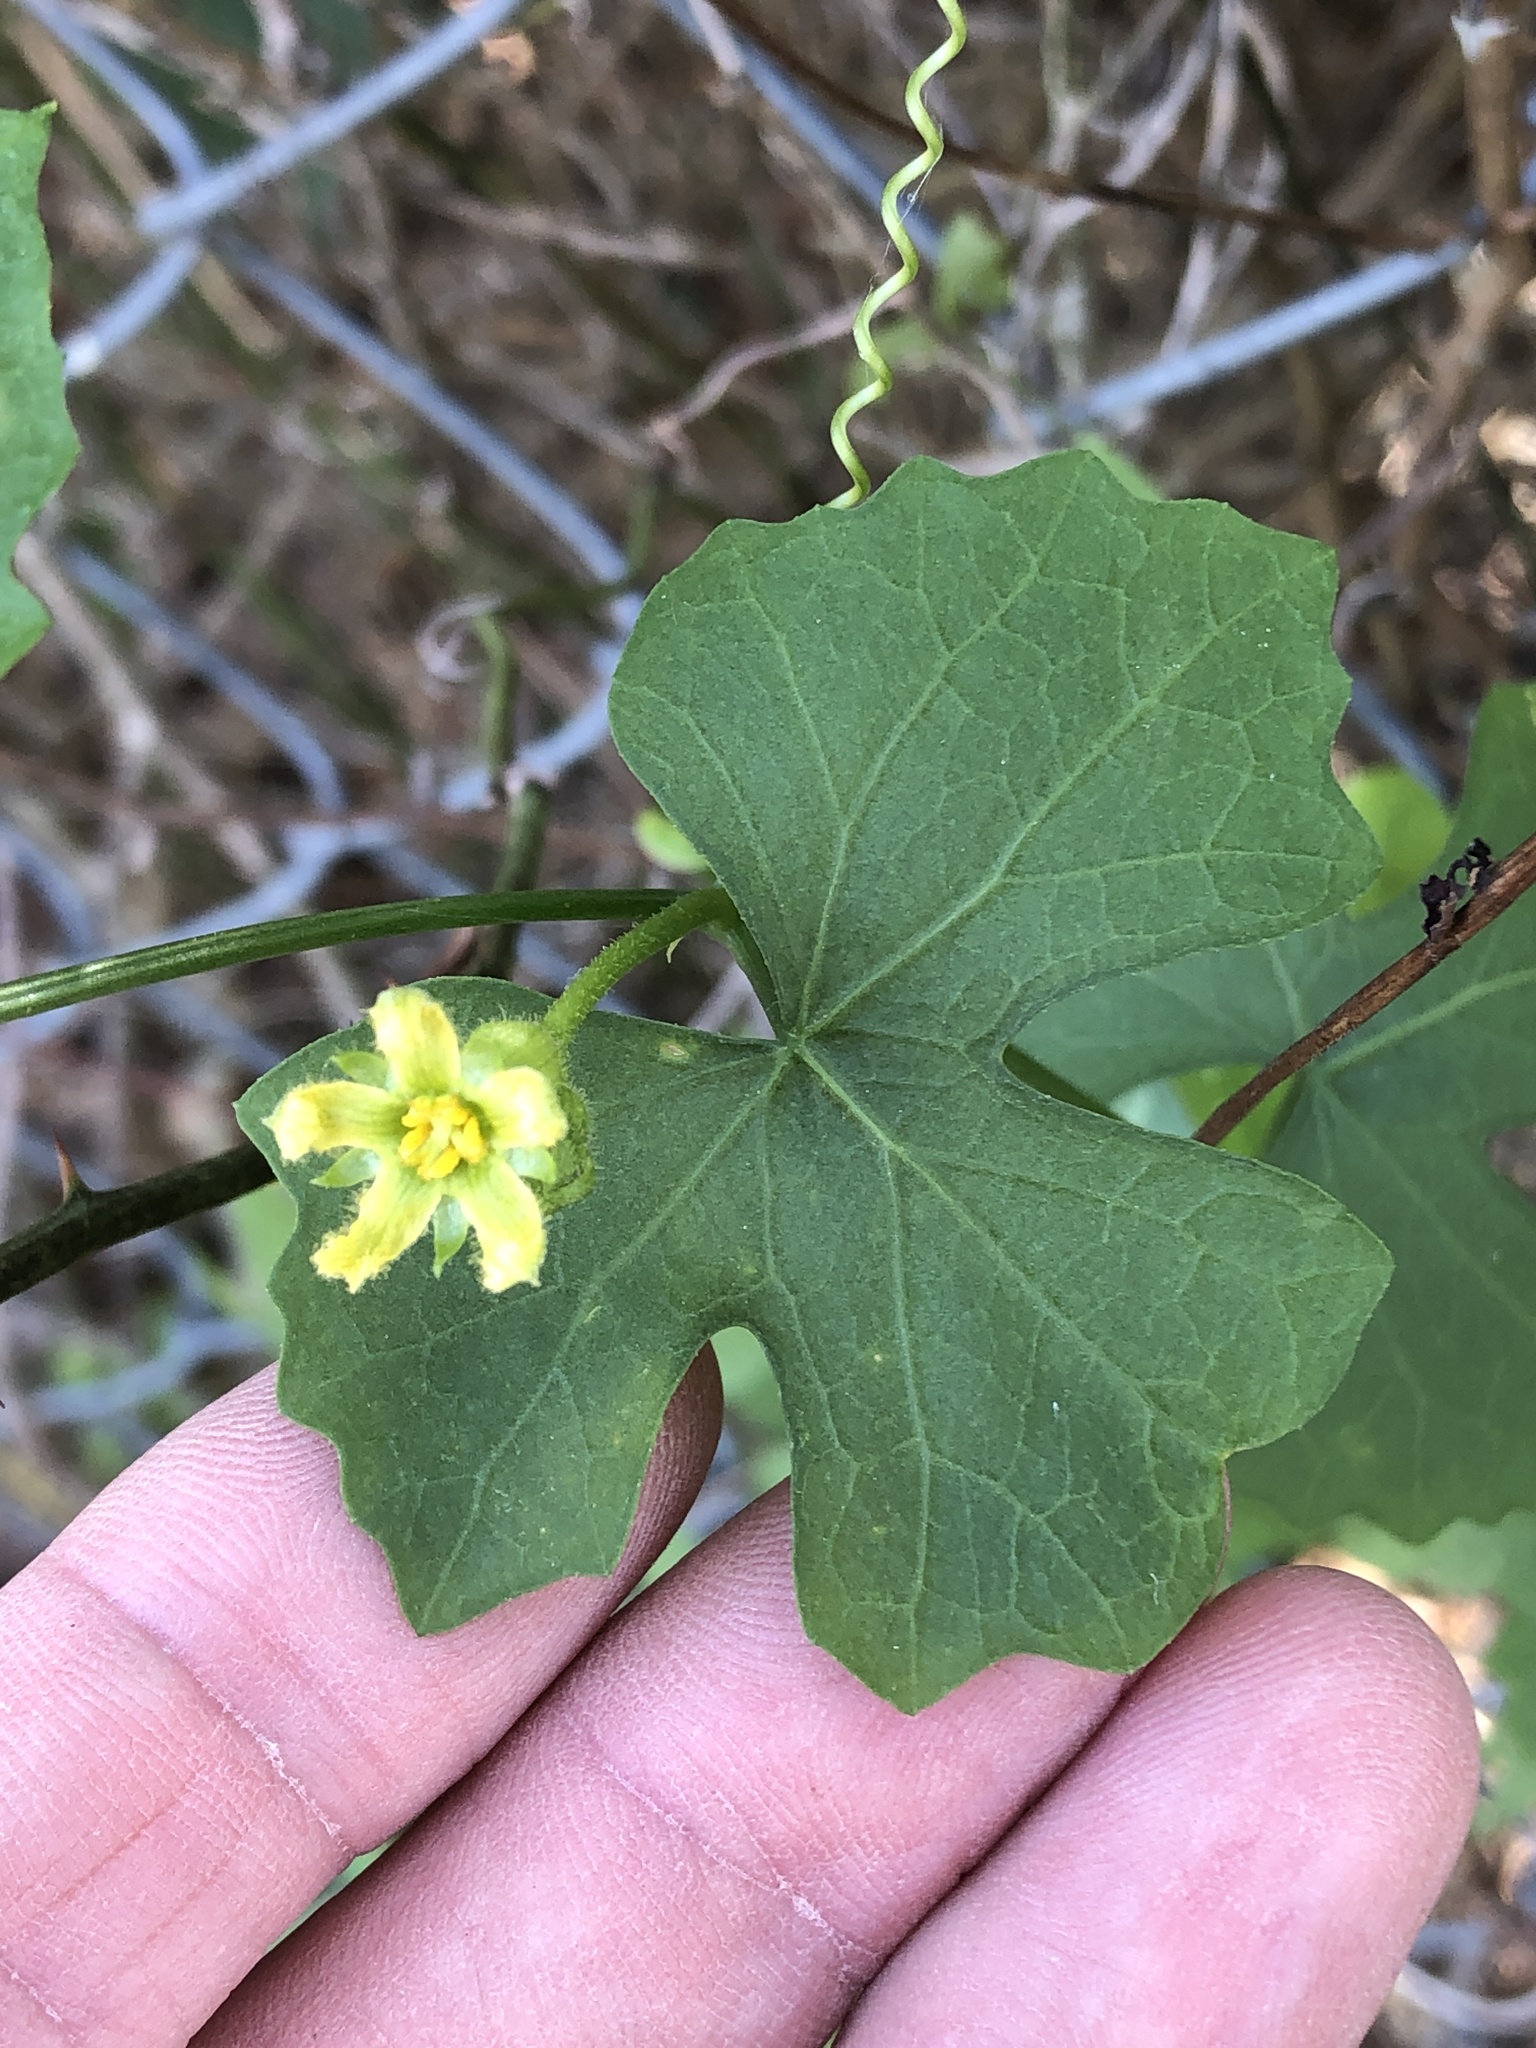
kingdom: Plantae
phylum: Tracheophyta
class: Magnoliopsida
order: Cucurbitales
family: Cucurbitaceae
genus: Ibervillea
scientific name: Ibervillea lindheimeri
